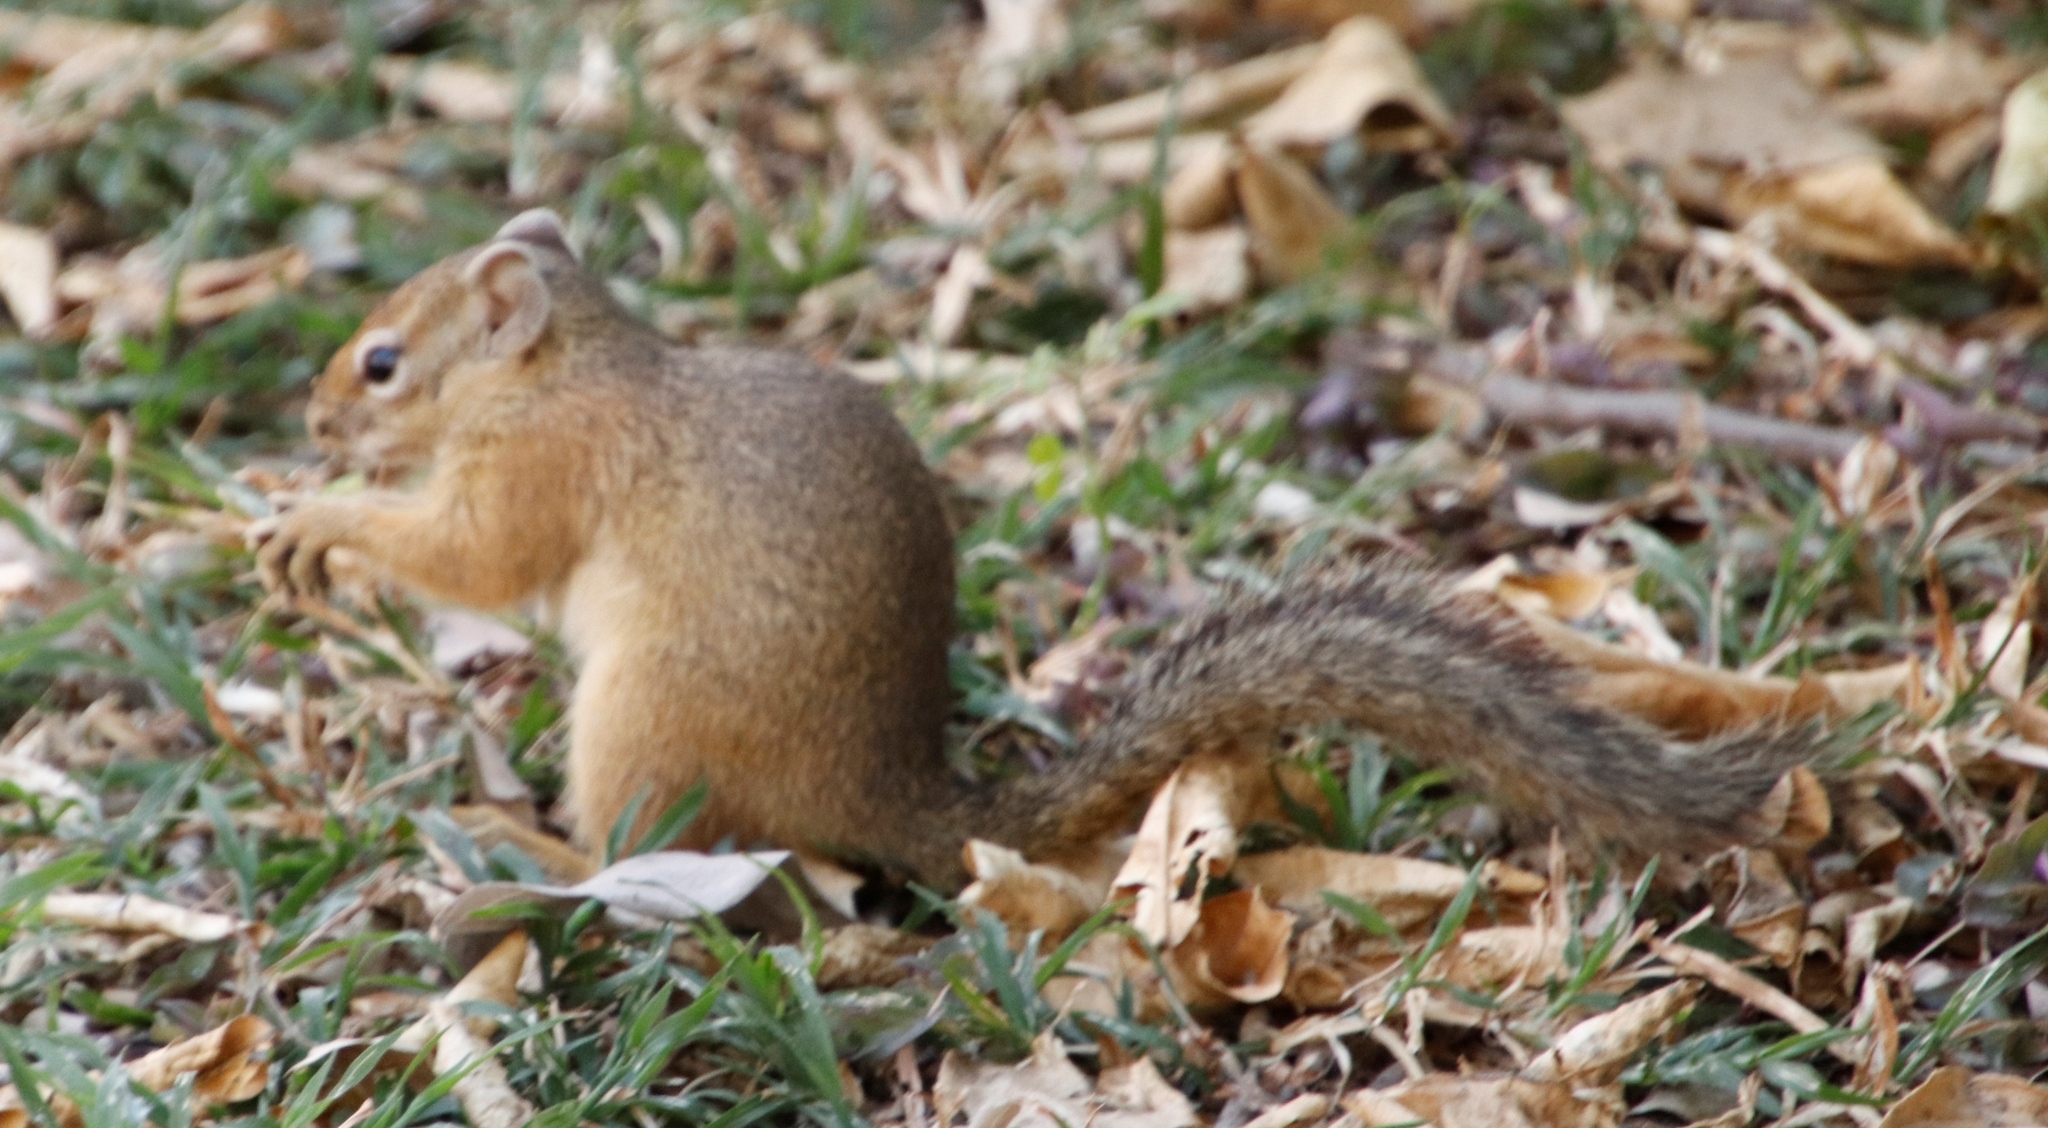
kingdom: Animalia
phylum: Chordata
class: Mammalia
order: Rodentia
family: Sciuridae
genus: Paraxerus
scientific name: Paraxerus cepapi
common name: Smith's bush squirrel
